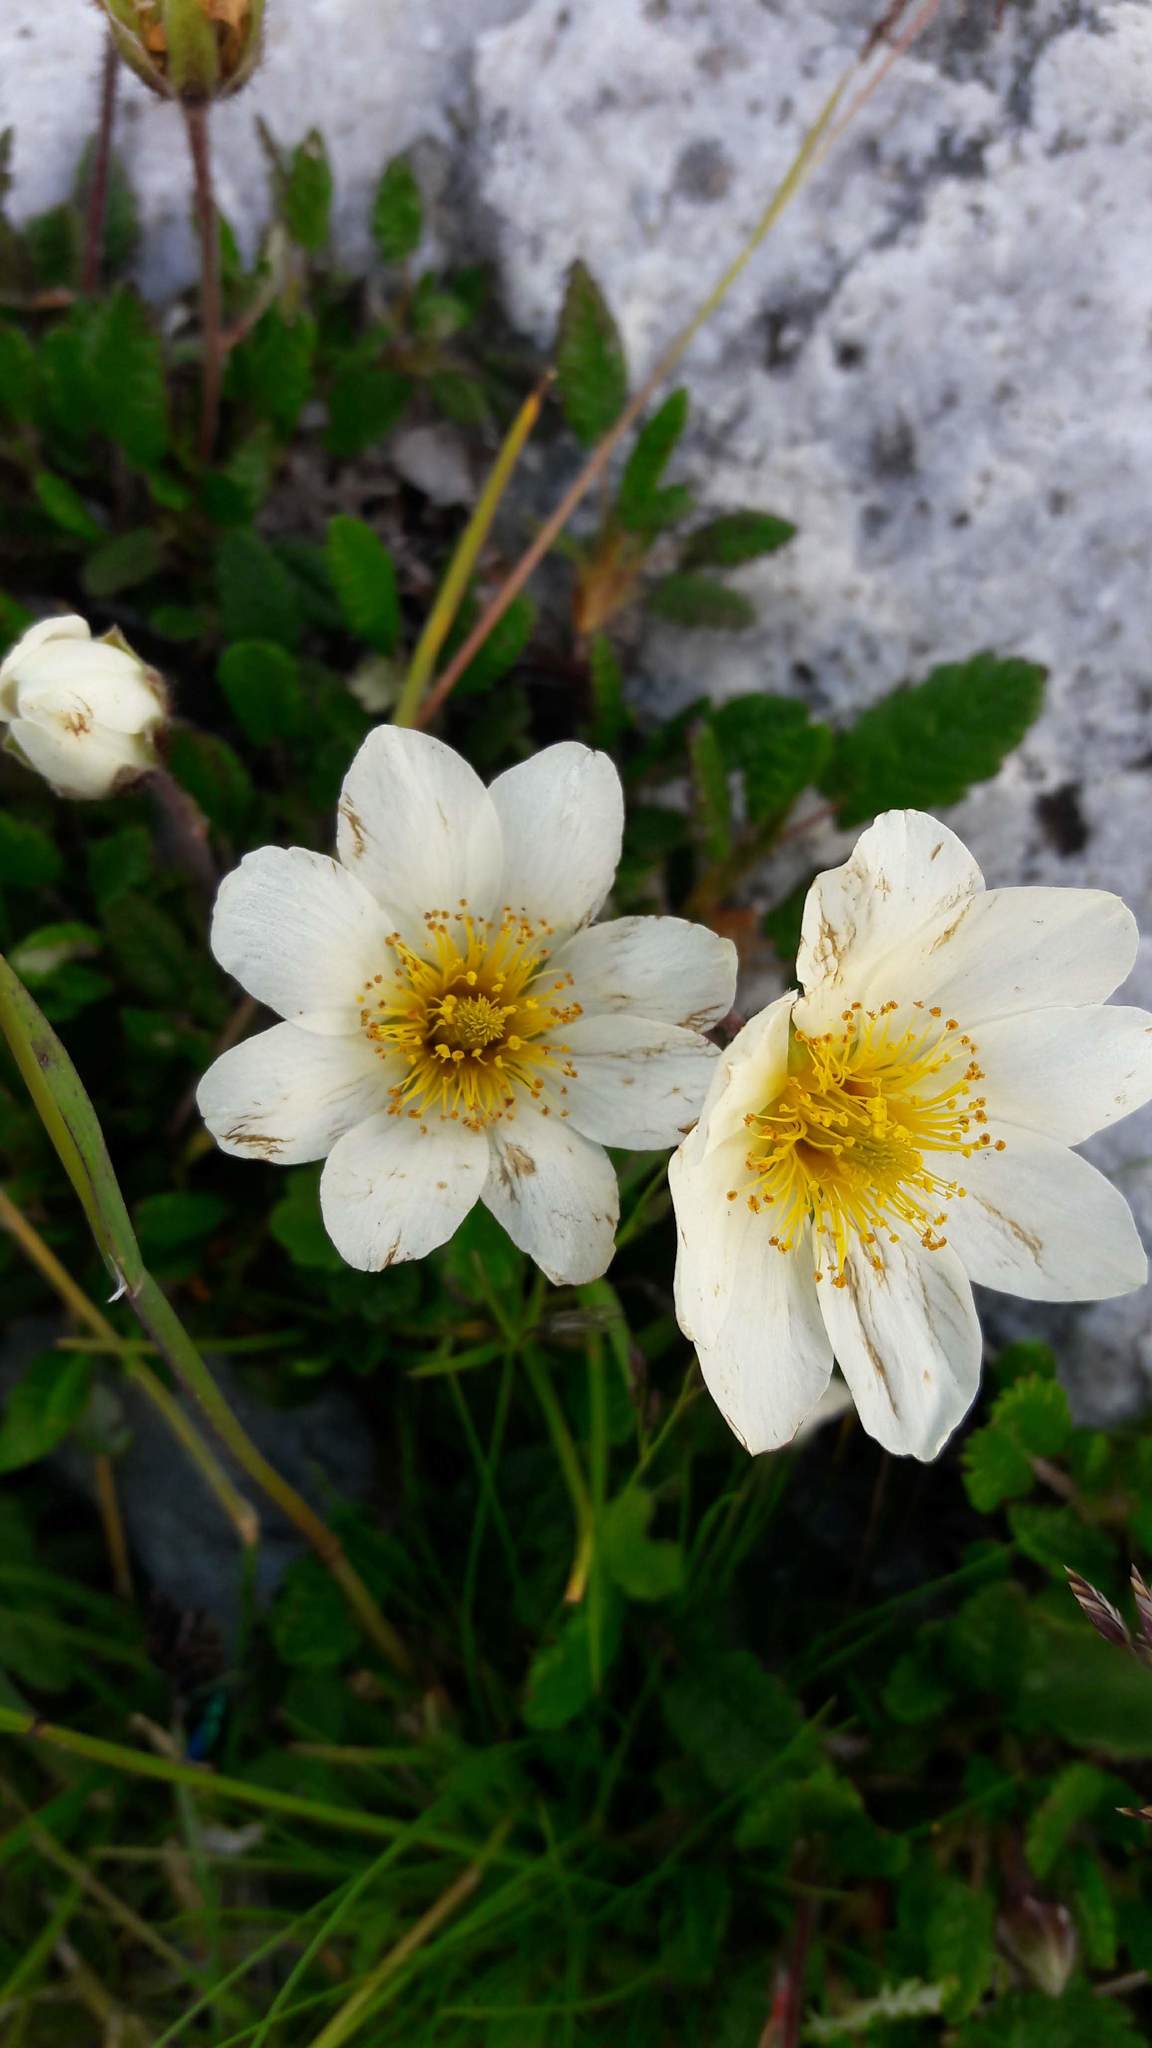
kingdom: Plantae
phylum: Tracheophyta
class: Magnoliopsida
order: Rosales
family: Rosaceae
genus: Dryas
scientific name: Dryas octopetala
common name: Eight-petal mountain-avens
